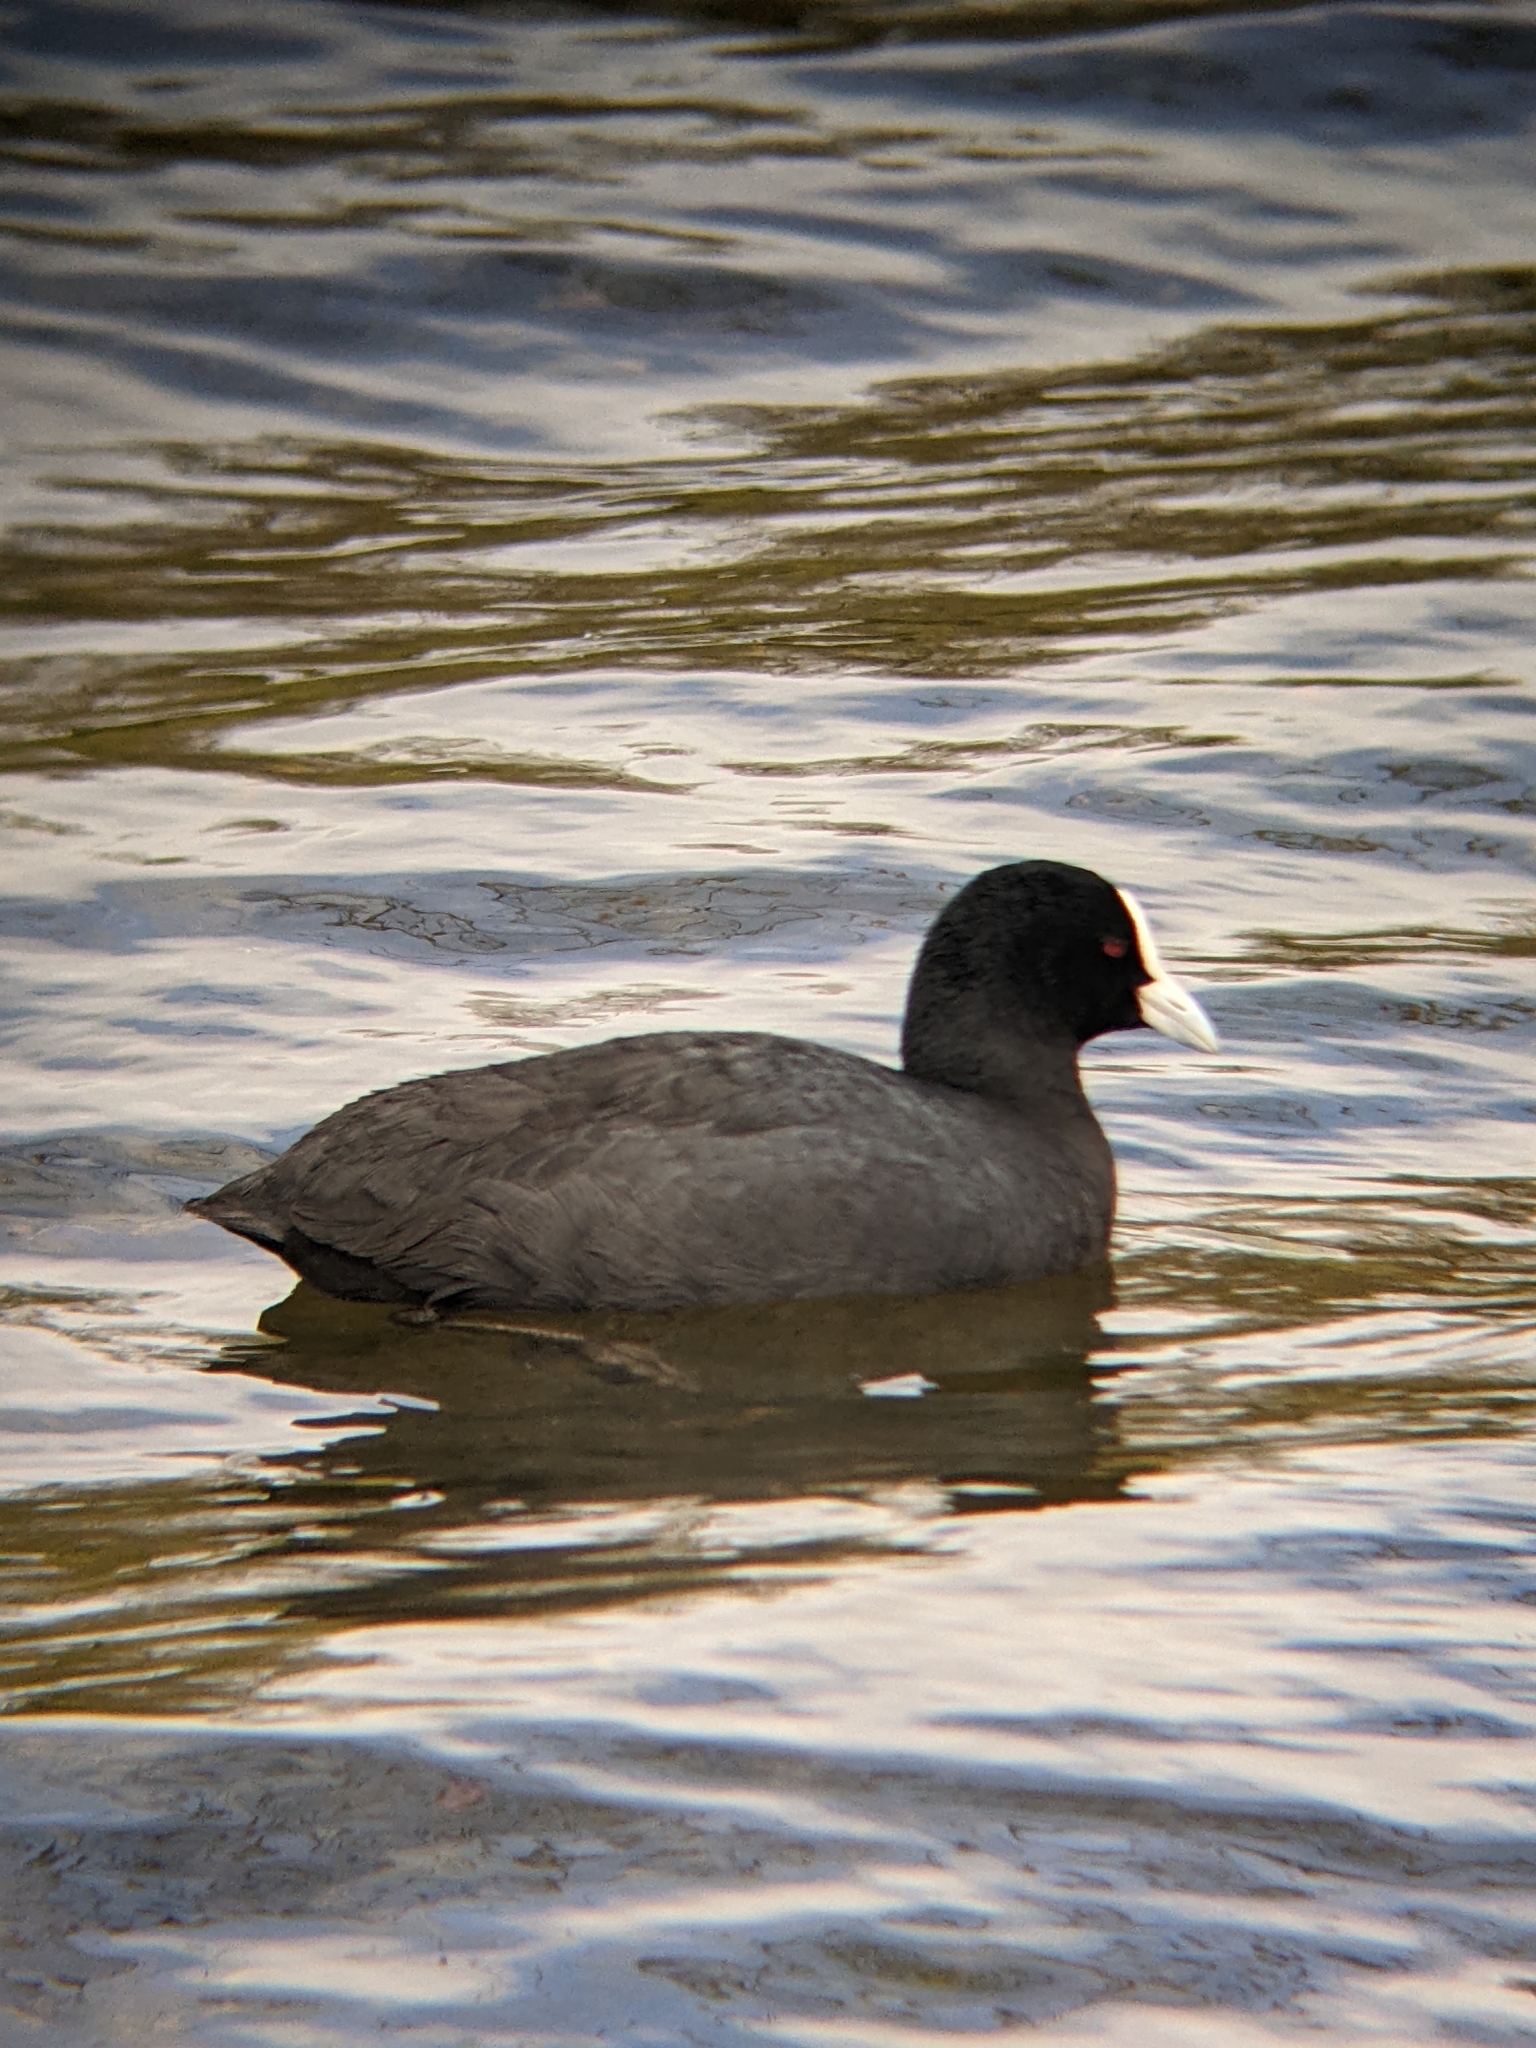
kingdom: Animalia
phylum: Chordata
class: Aves
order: Gruiformes
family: Rallidae
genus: Fulica
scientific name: Fulica atra
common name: Eurasian coot
